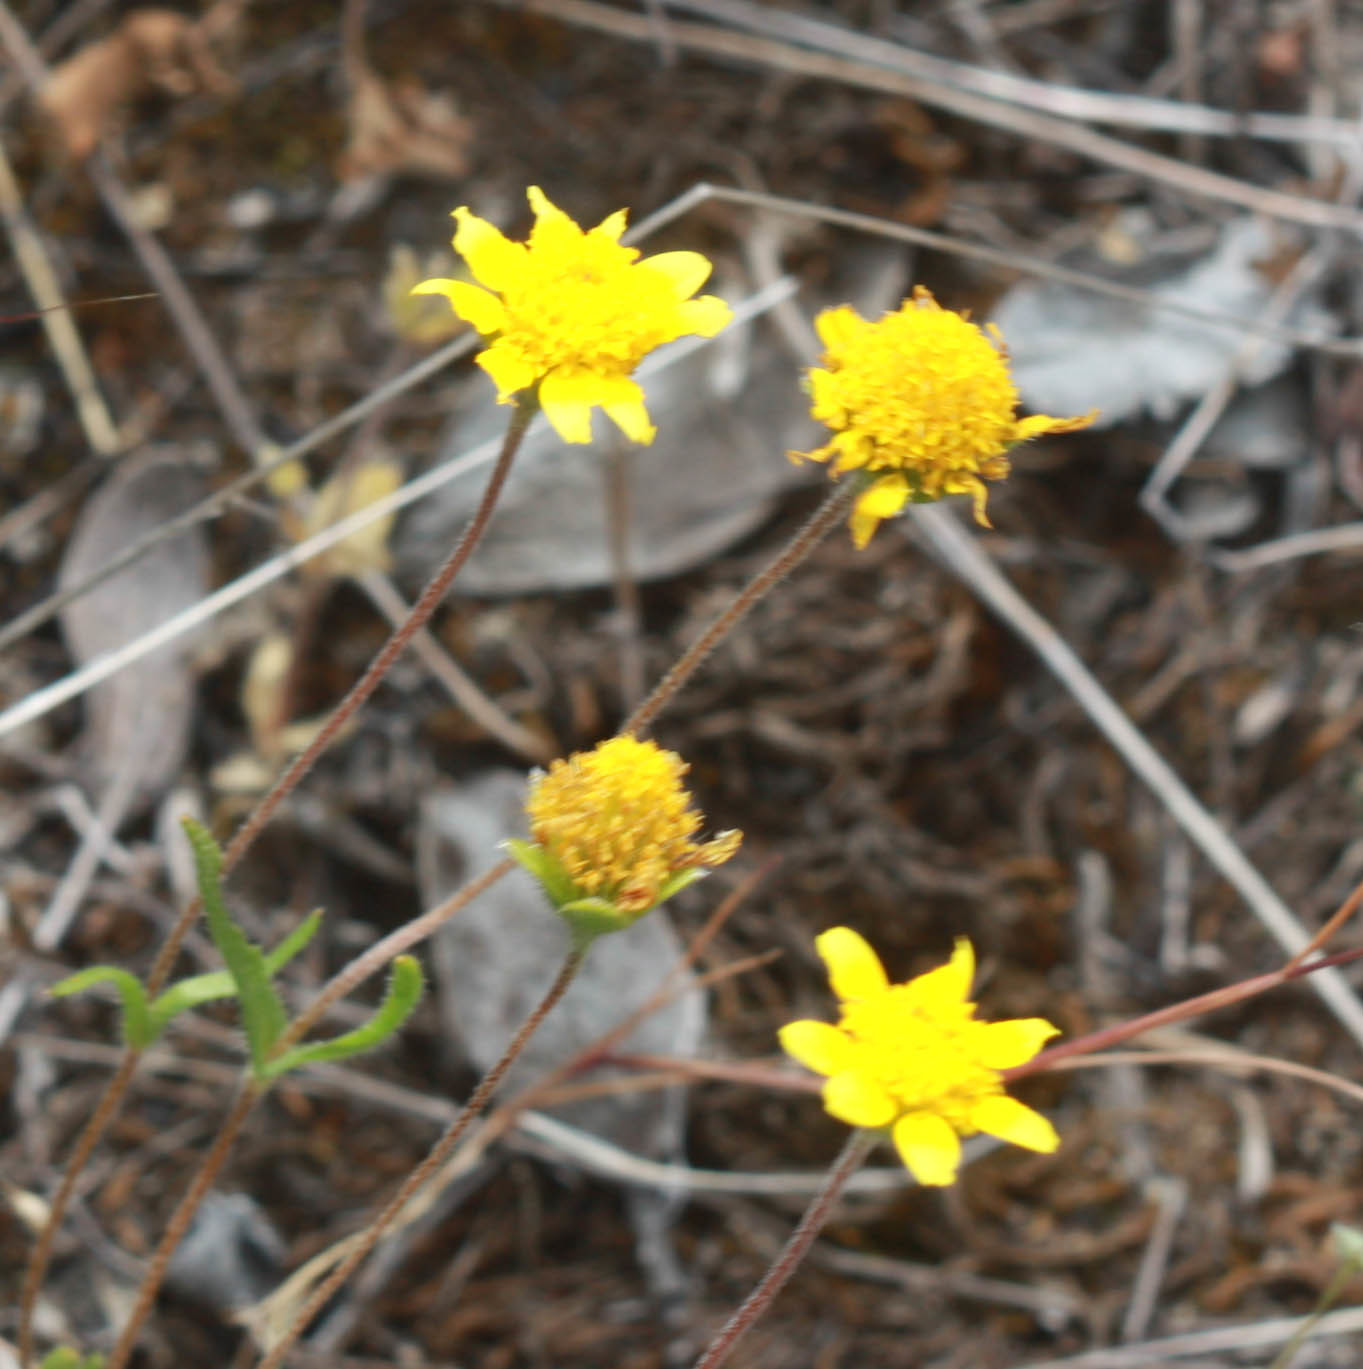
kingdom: Plantae
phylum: Tracheophyta
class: Magnoliopsida
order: Asterales
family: Asteraceae
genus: Lasthenia
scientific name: Lasthenia californica
